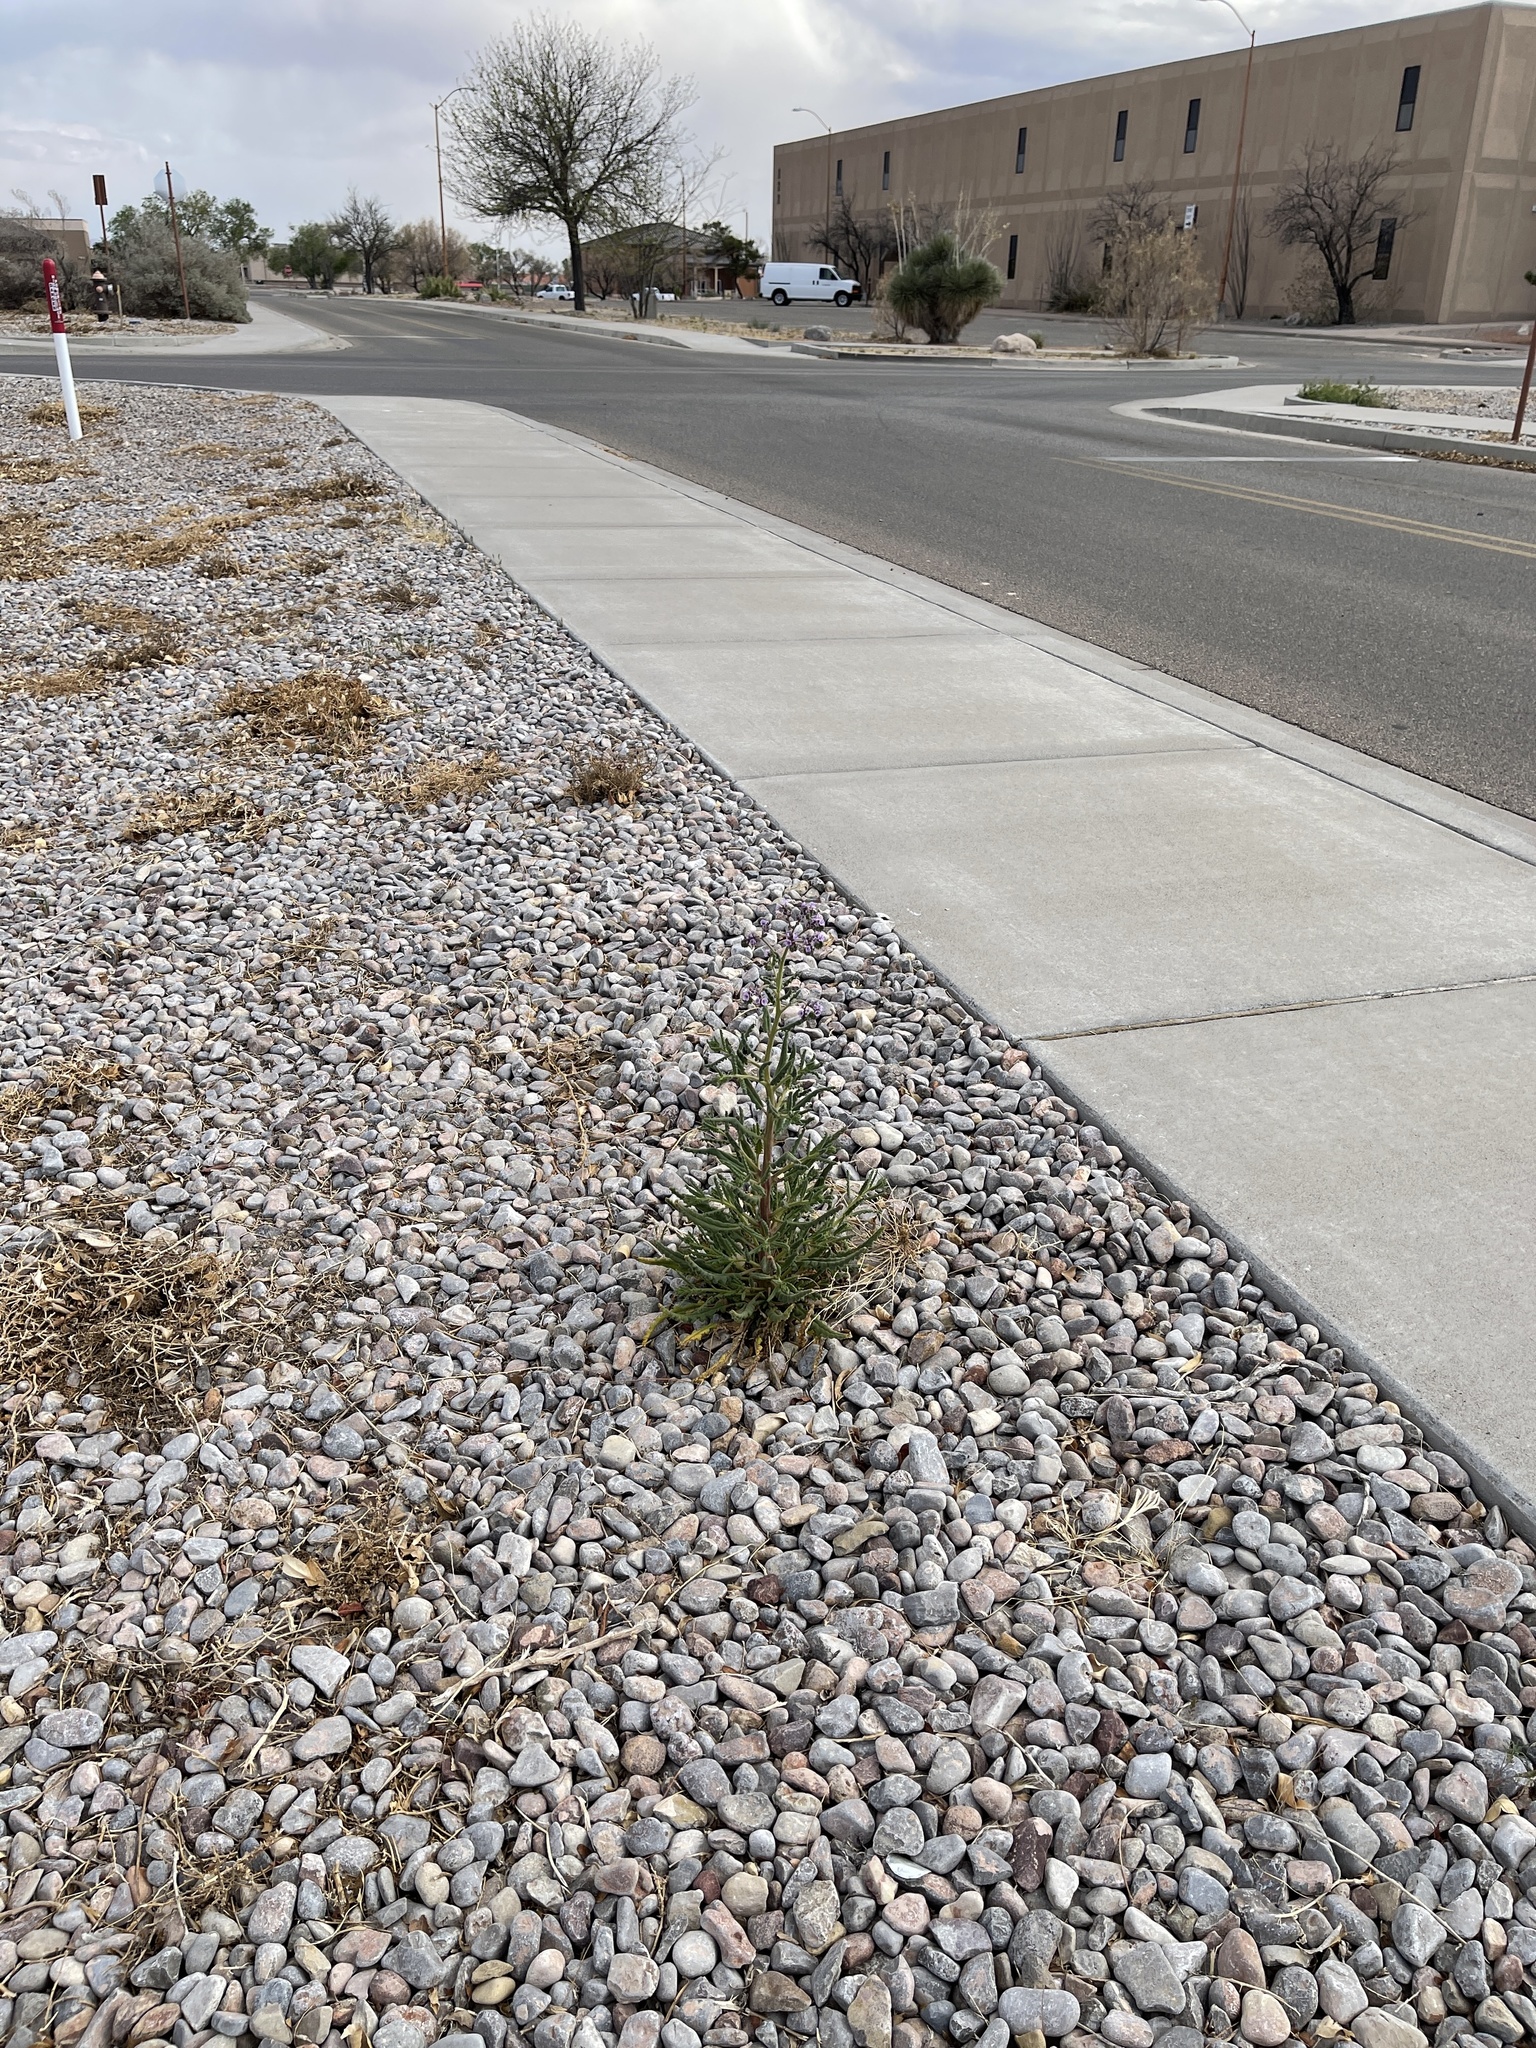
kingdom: Plantae
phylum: Tracheophyta
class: Magnoliopsida
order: Boraginales
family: Hydrophyllaceae
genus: Phacelia
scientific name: Phacelia integrifolia
